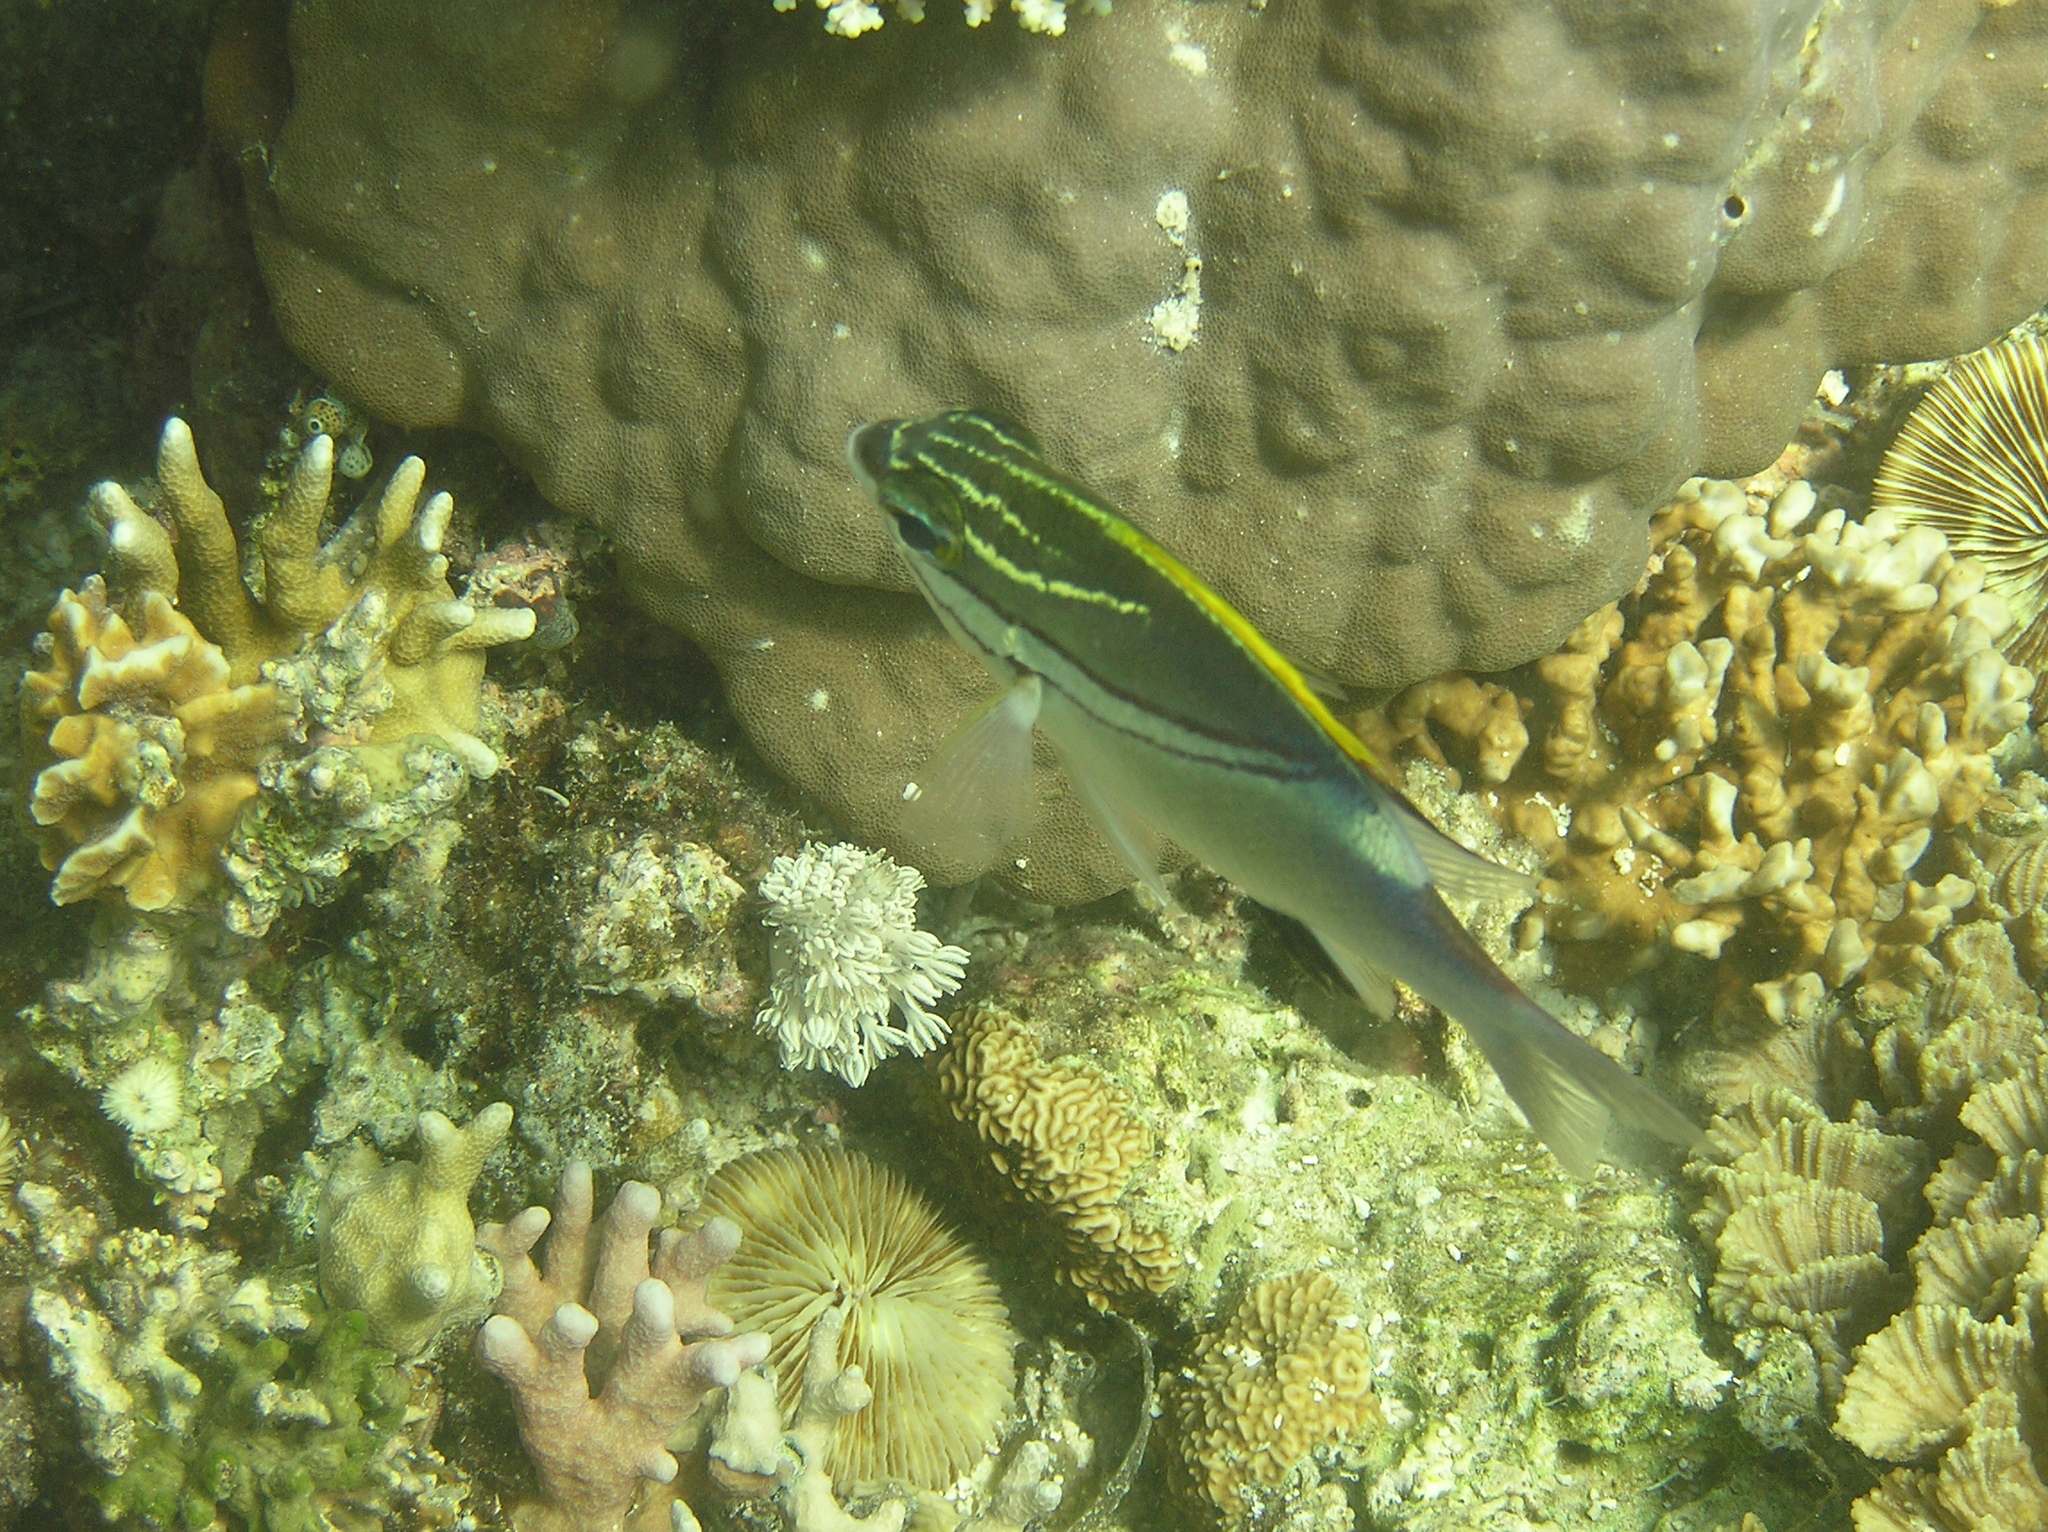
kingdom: Animalia
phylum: Chordata
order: Perciformes
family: Nemipteridae
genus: Scolopsis
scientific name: Scolopsis bilineata
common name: Two-lined monocle bream
